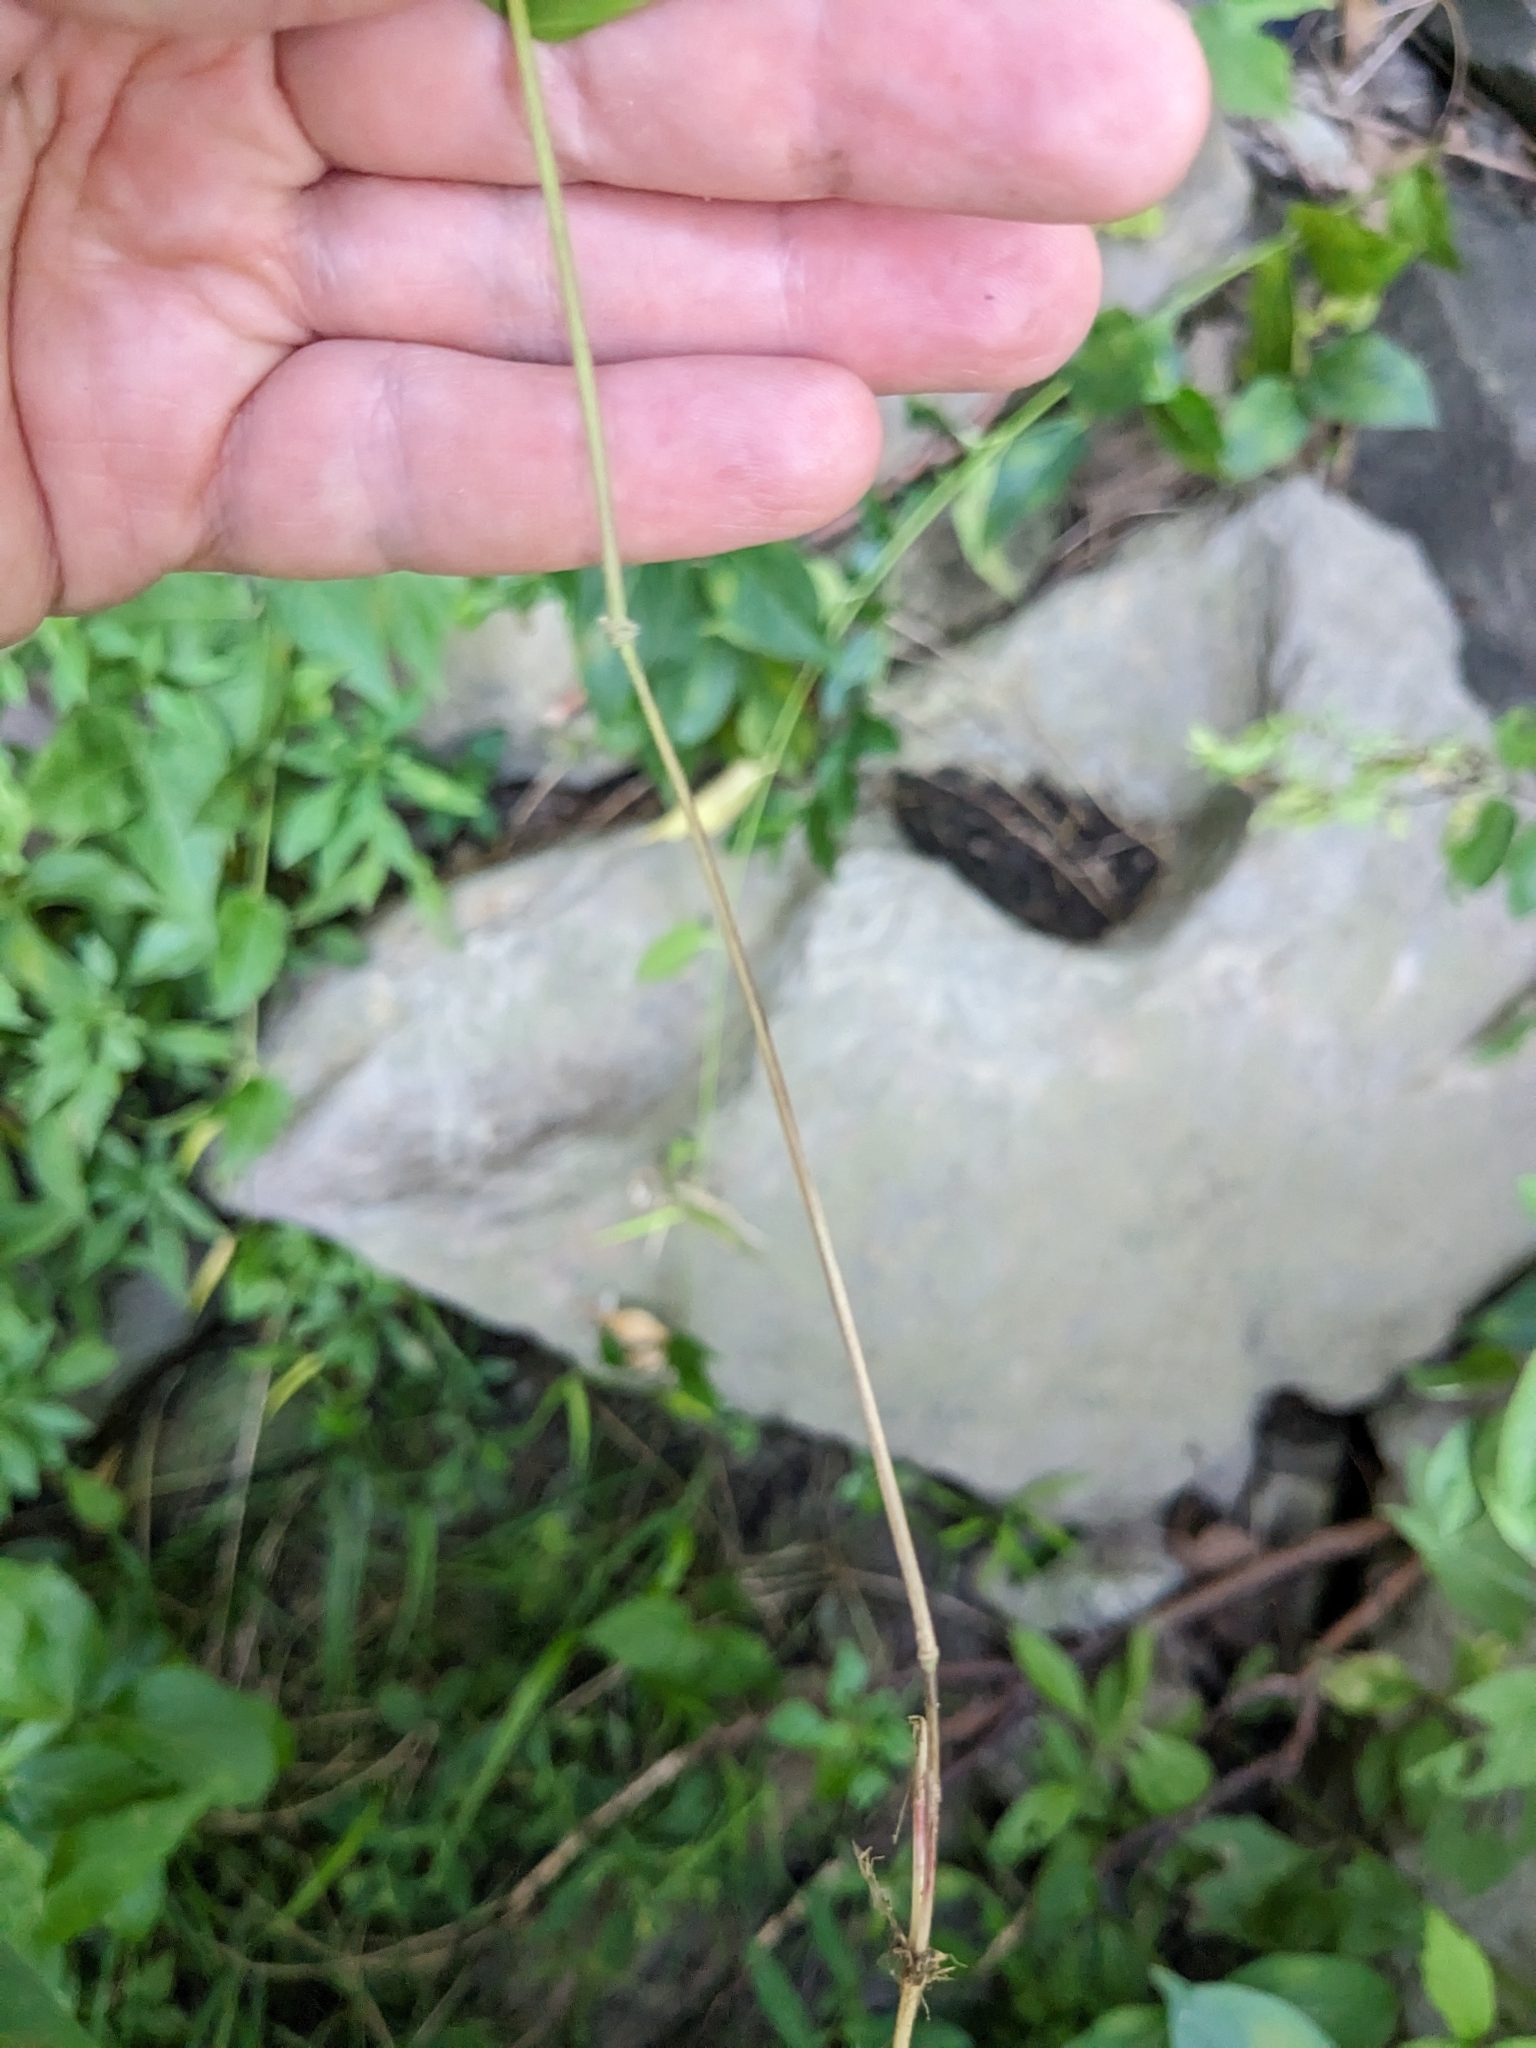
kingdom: Plantae
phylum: Tracheophyta
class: Liliopsida
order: Poales
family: Poaceae
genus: Leersia
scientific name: Leersia virginica
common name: White cutgrass
